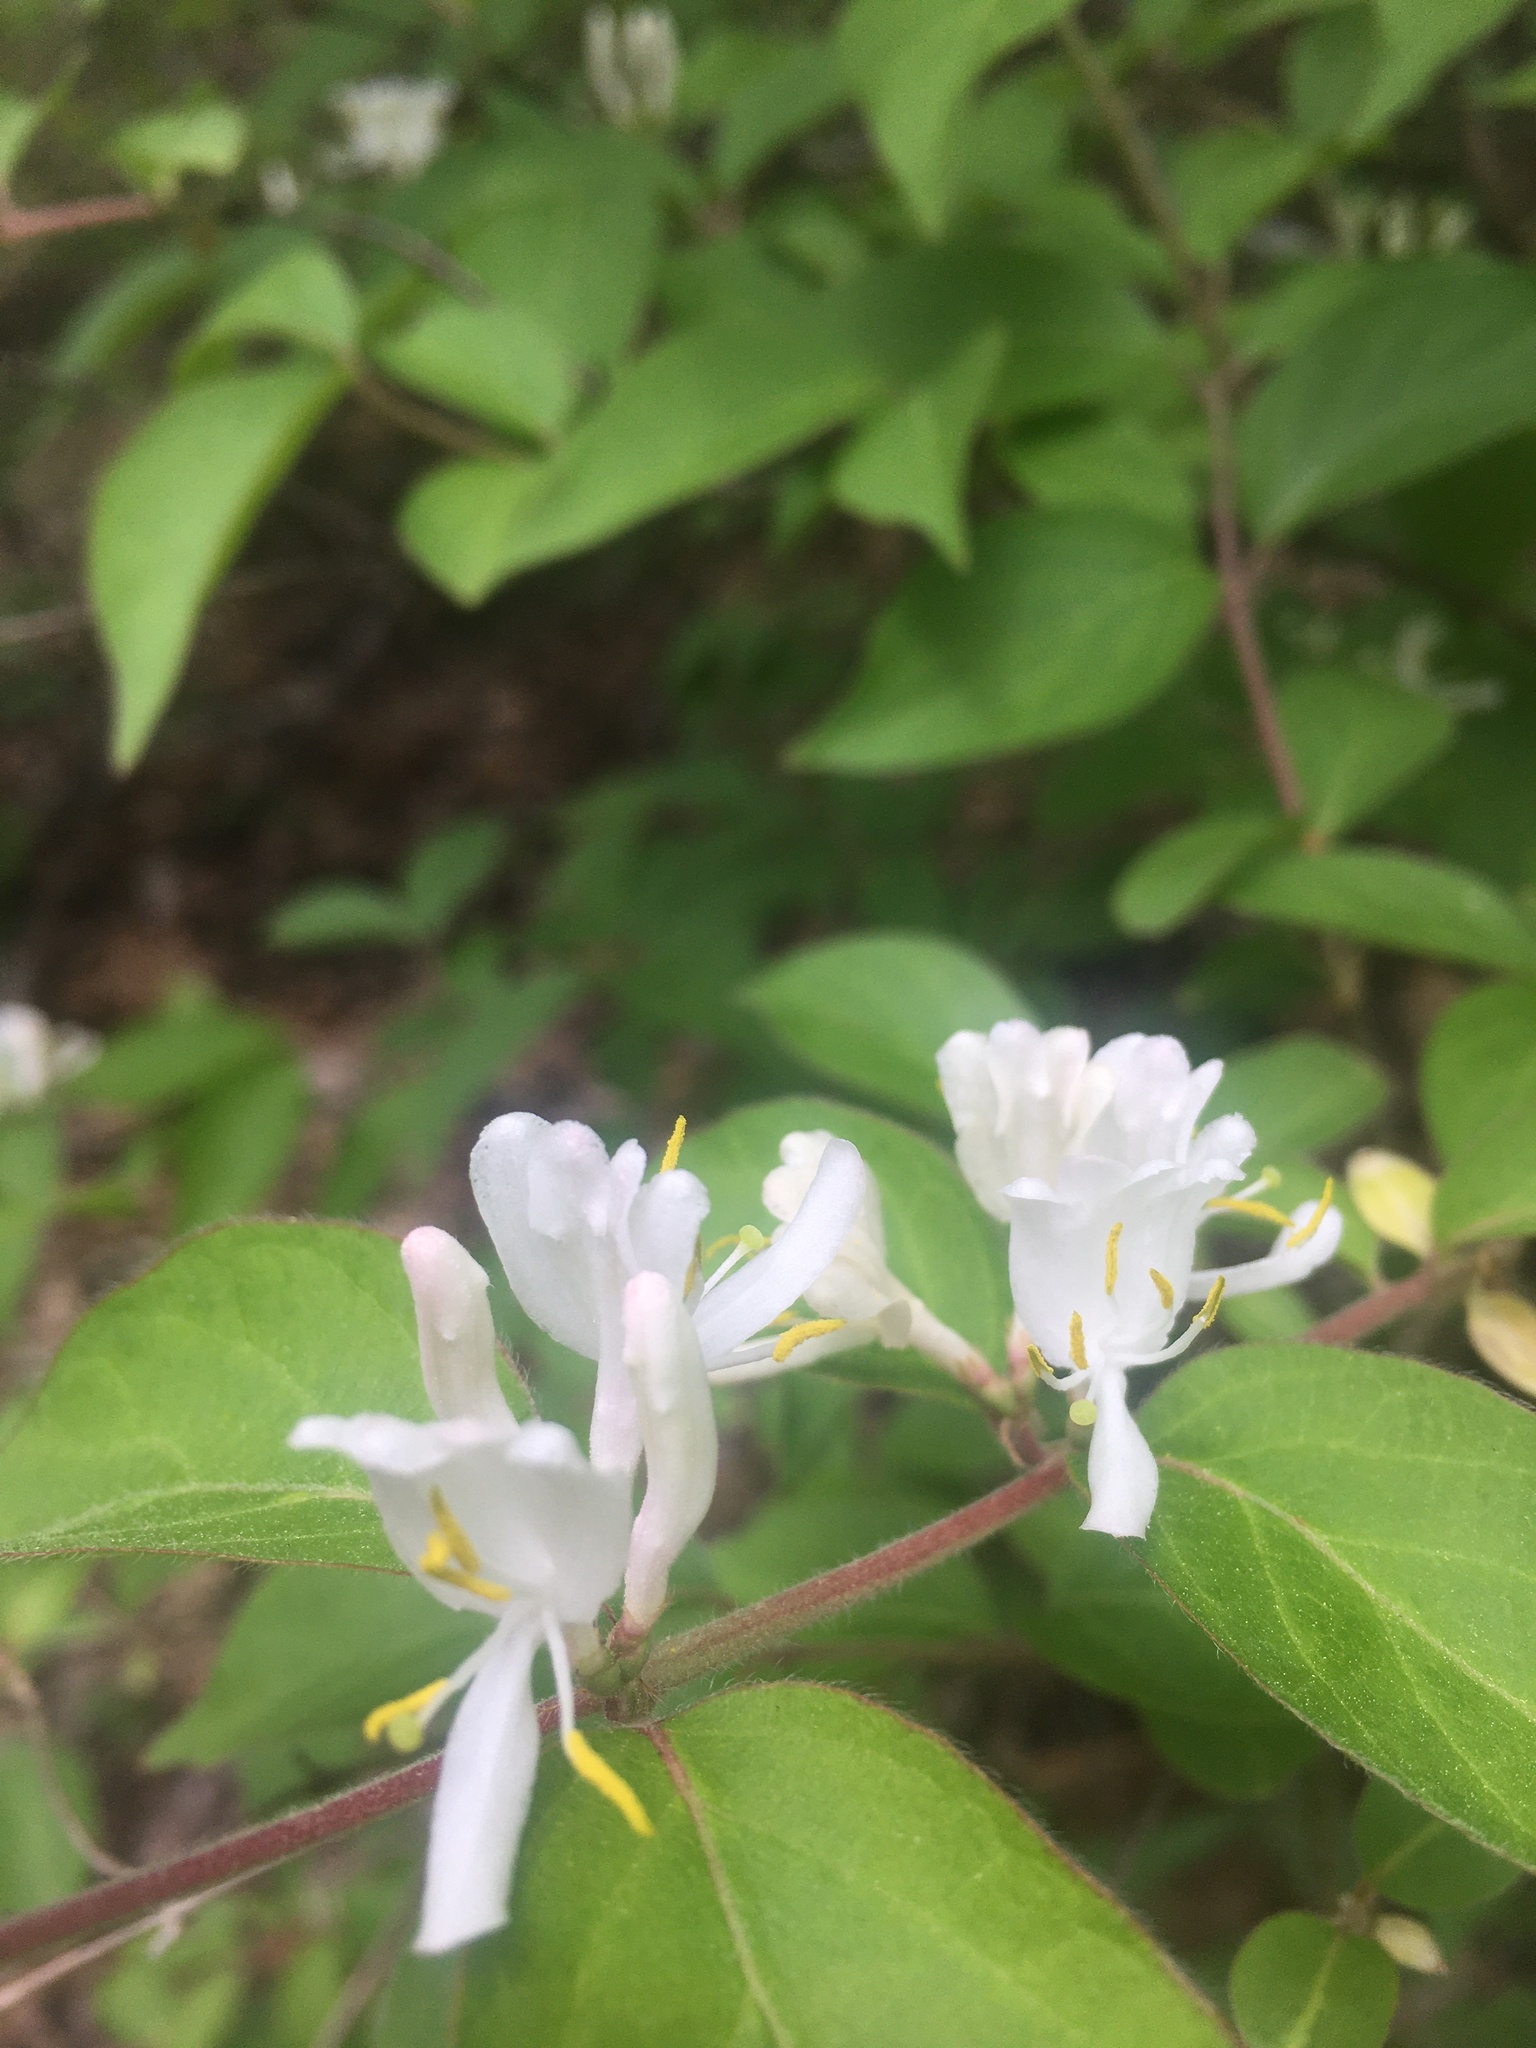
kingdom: Plantae
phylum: Tracheophyta
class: Magnoliopsida
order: Dipsacales
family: Caprifoliaceae
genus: Lonicera
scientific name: Lonicera maackii
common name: Amur honeysuckle
